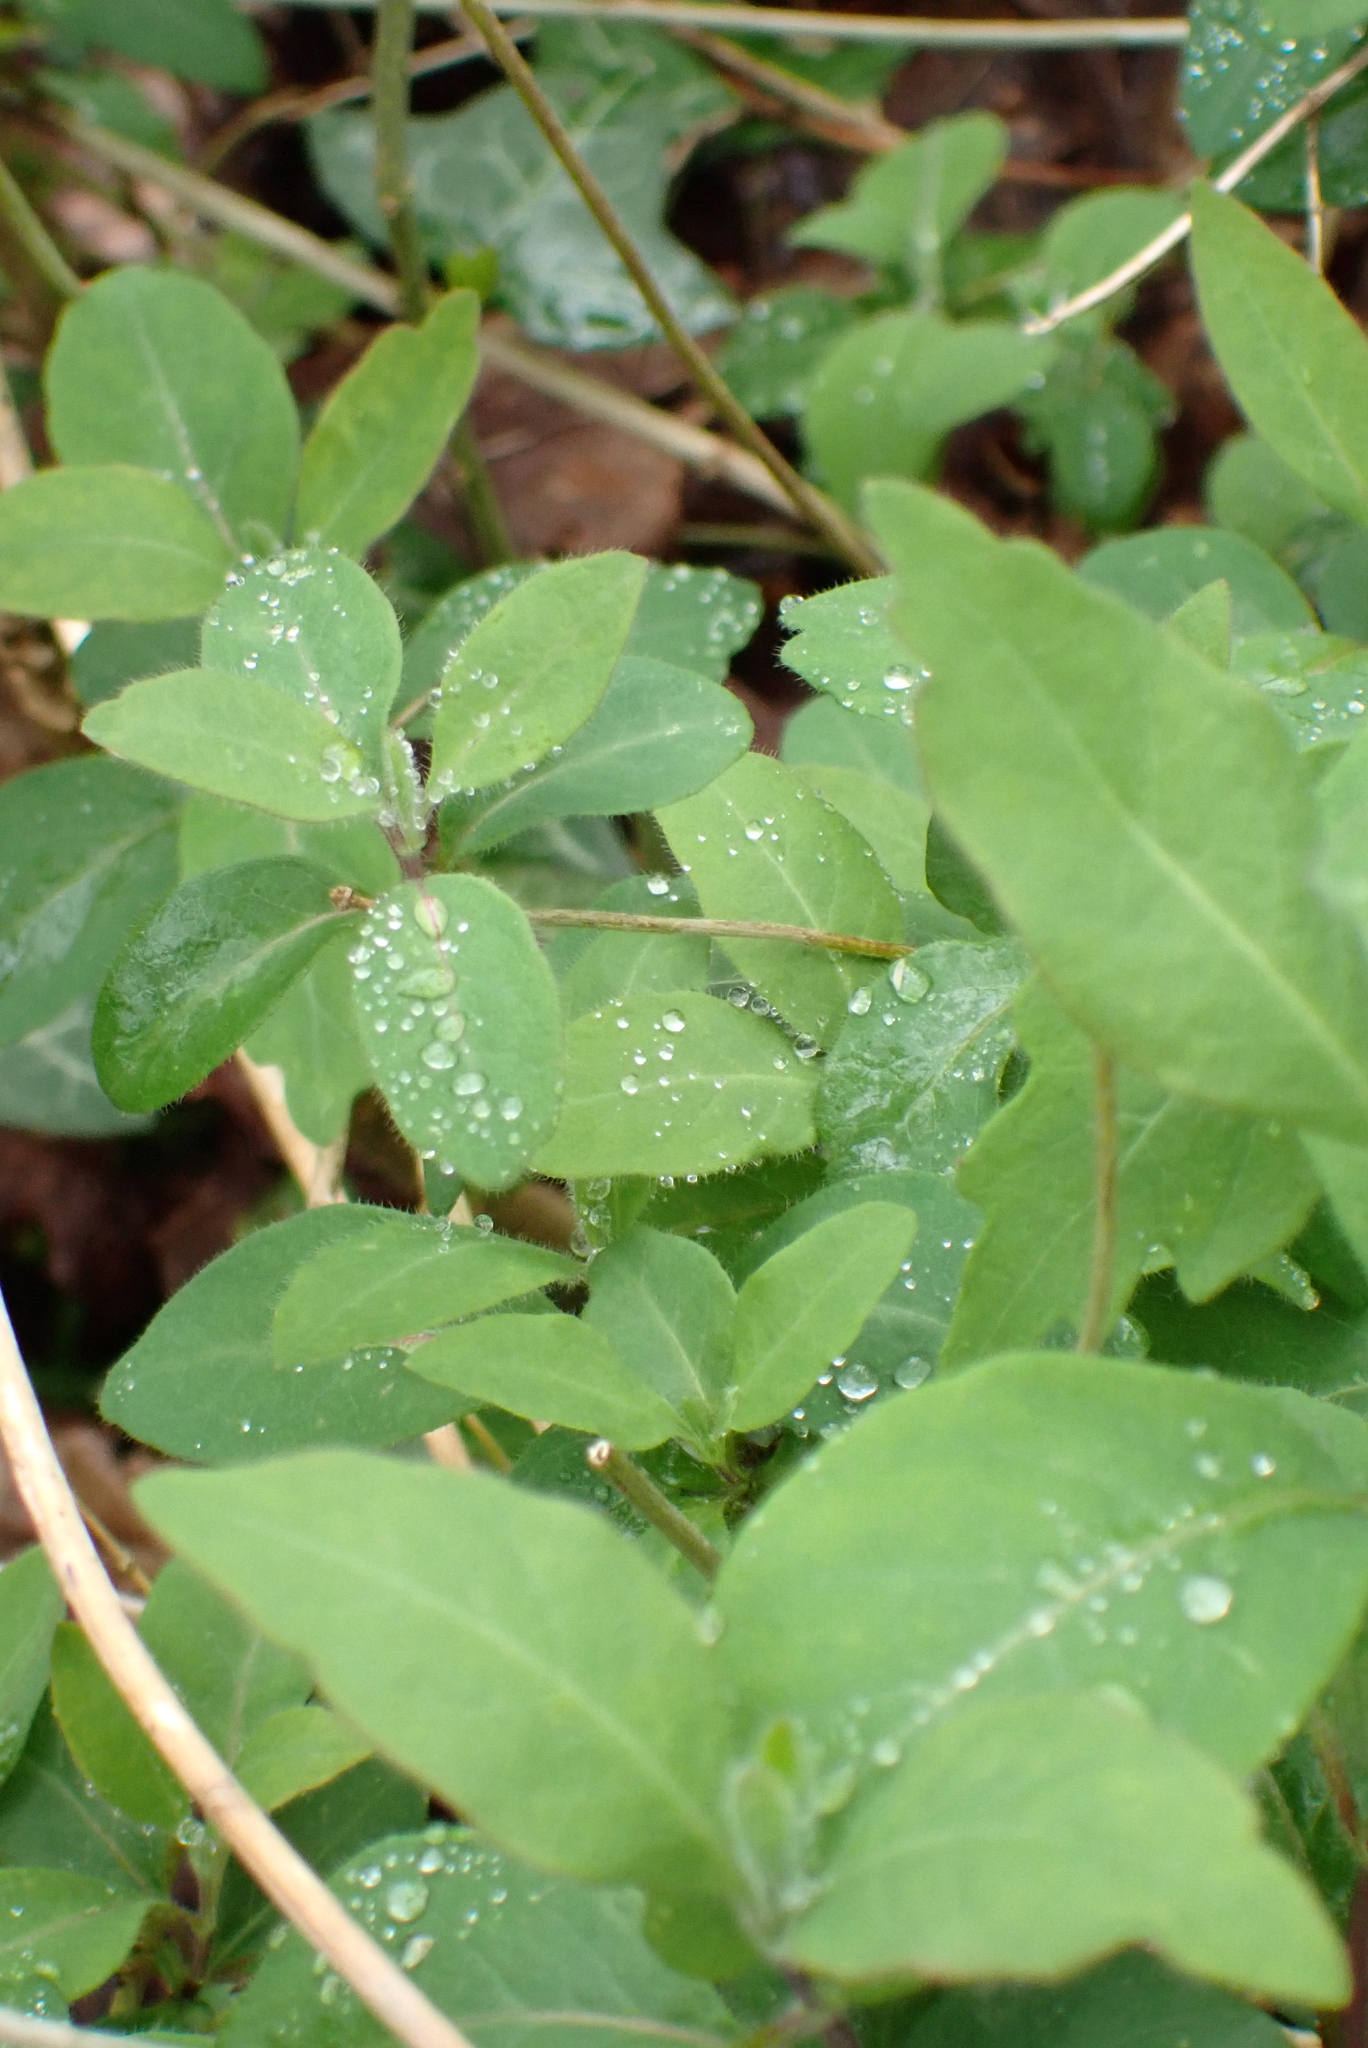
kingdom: Plantae
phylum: Tracheophyta
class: Magnoliopsida
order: Dipsacales
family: Caprifoliaceae
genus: Lonicera
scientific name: Lonicera periclymenum
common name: European honeysuckle
